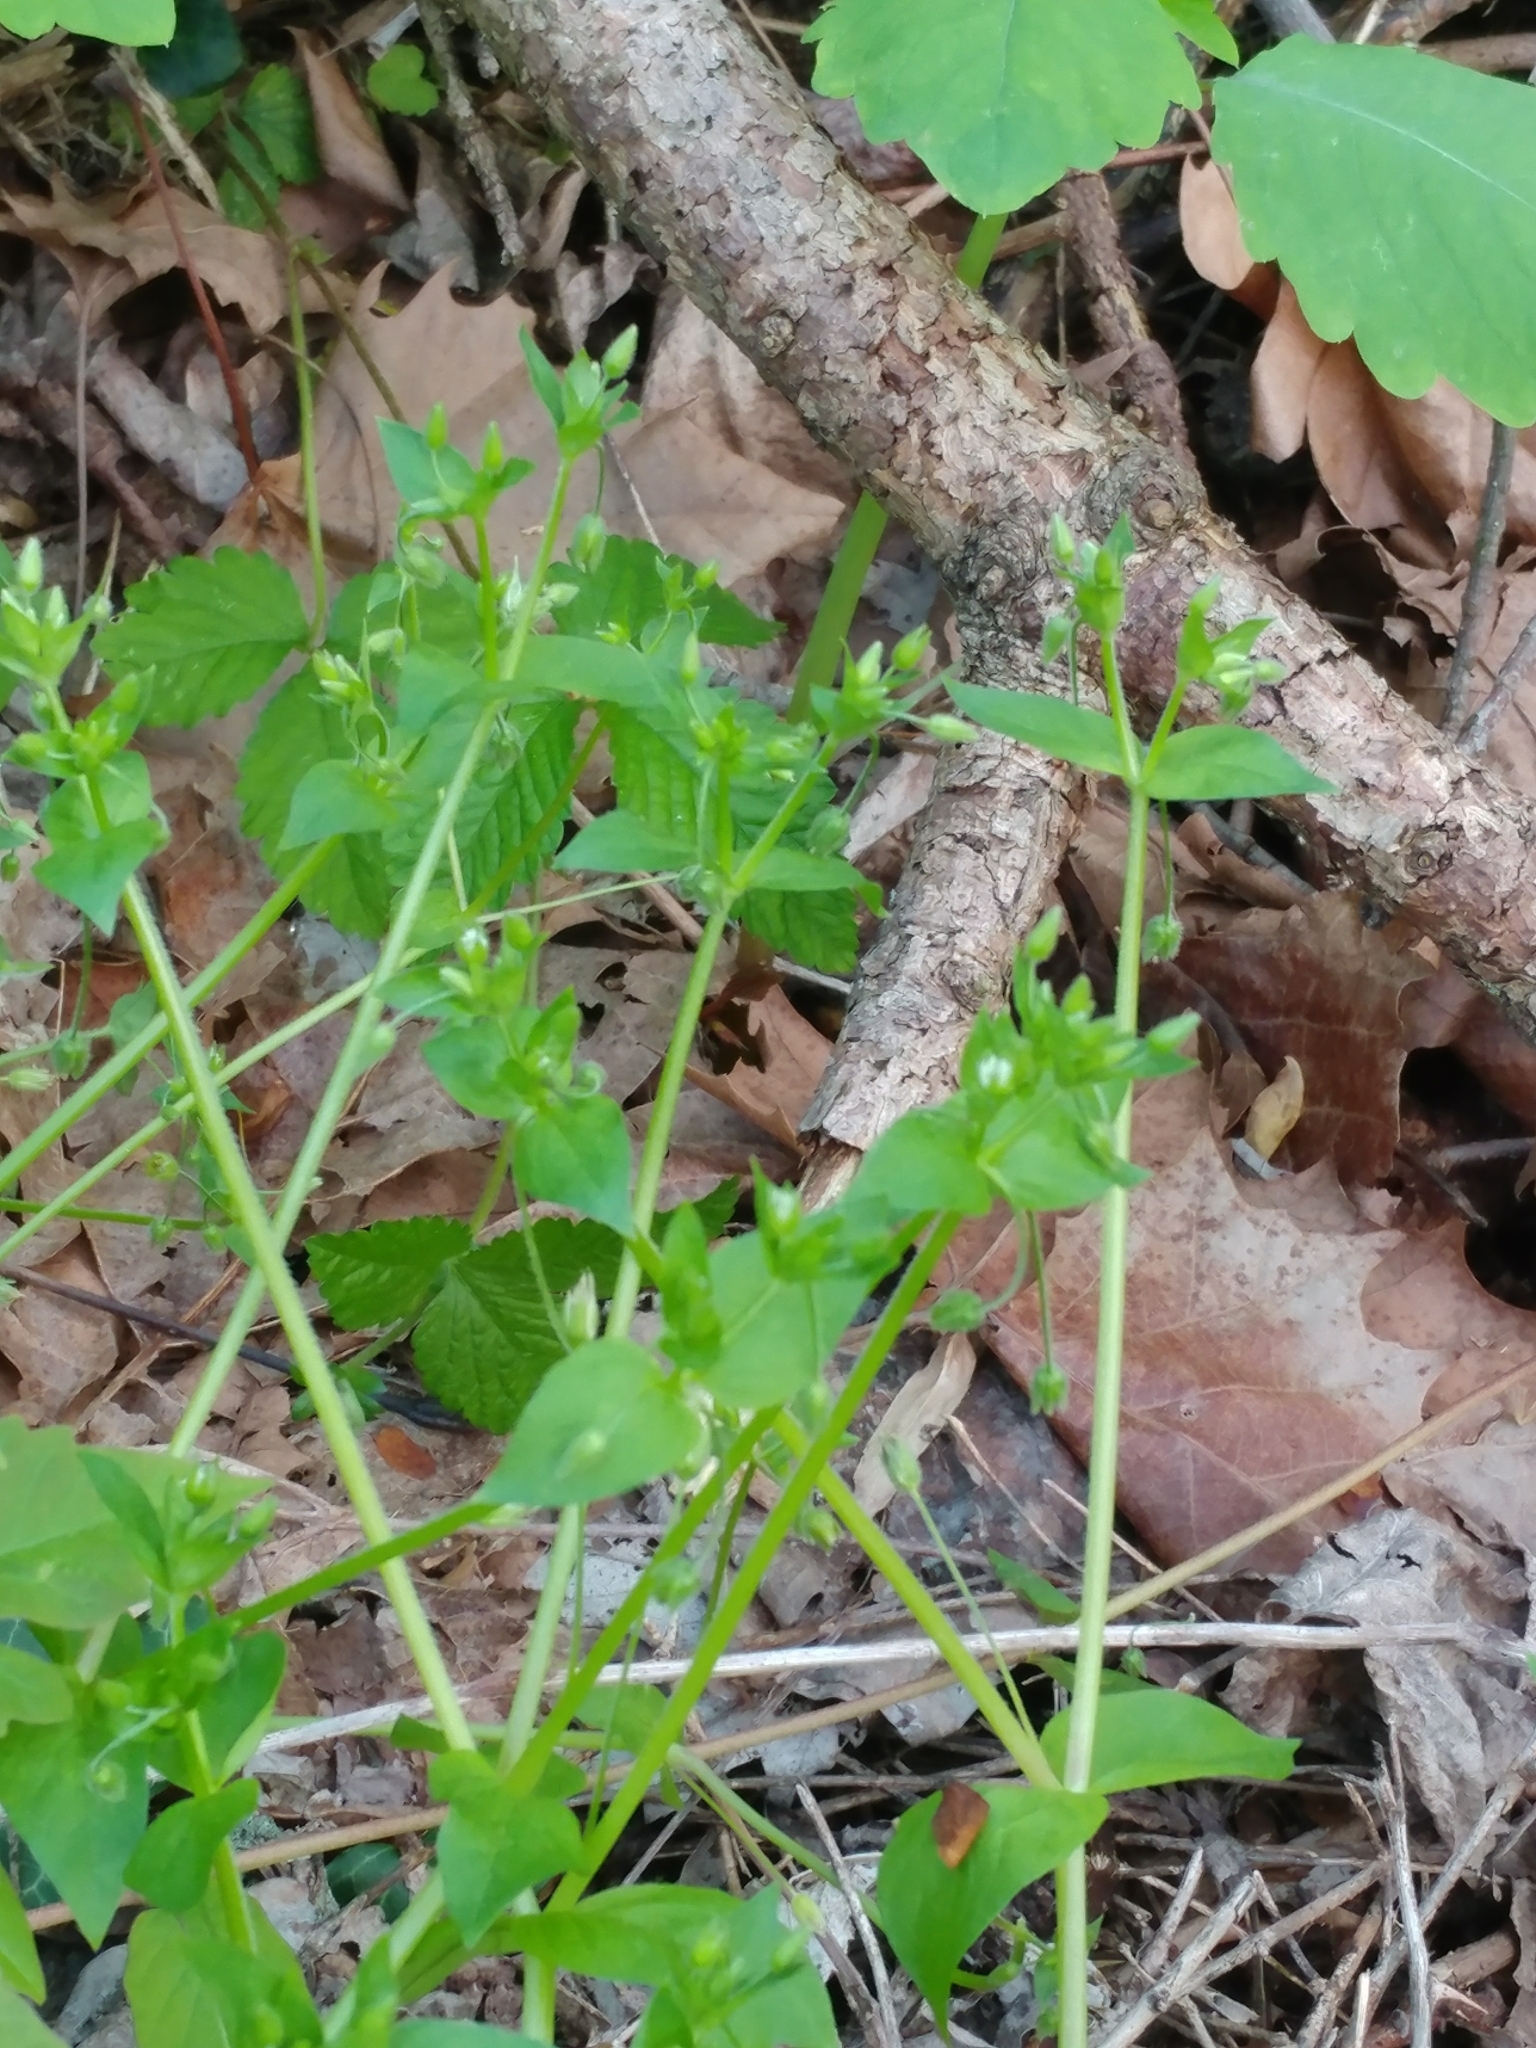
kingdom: Plantae
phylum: Tracheophyta
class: Magnoliopsida
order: Caryophyllales
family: Caryophyllaceae
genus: Stellaria
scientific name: Stellaria media
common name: Common chickweed
